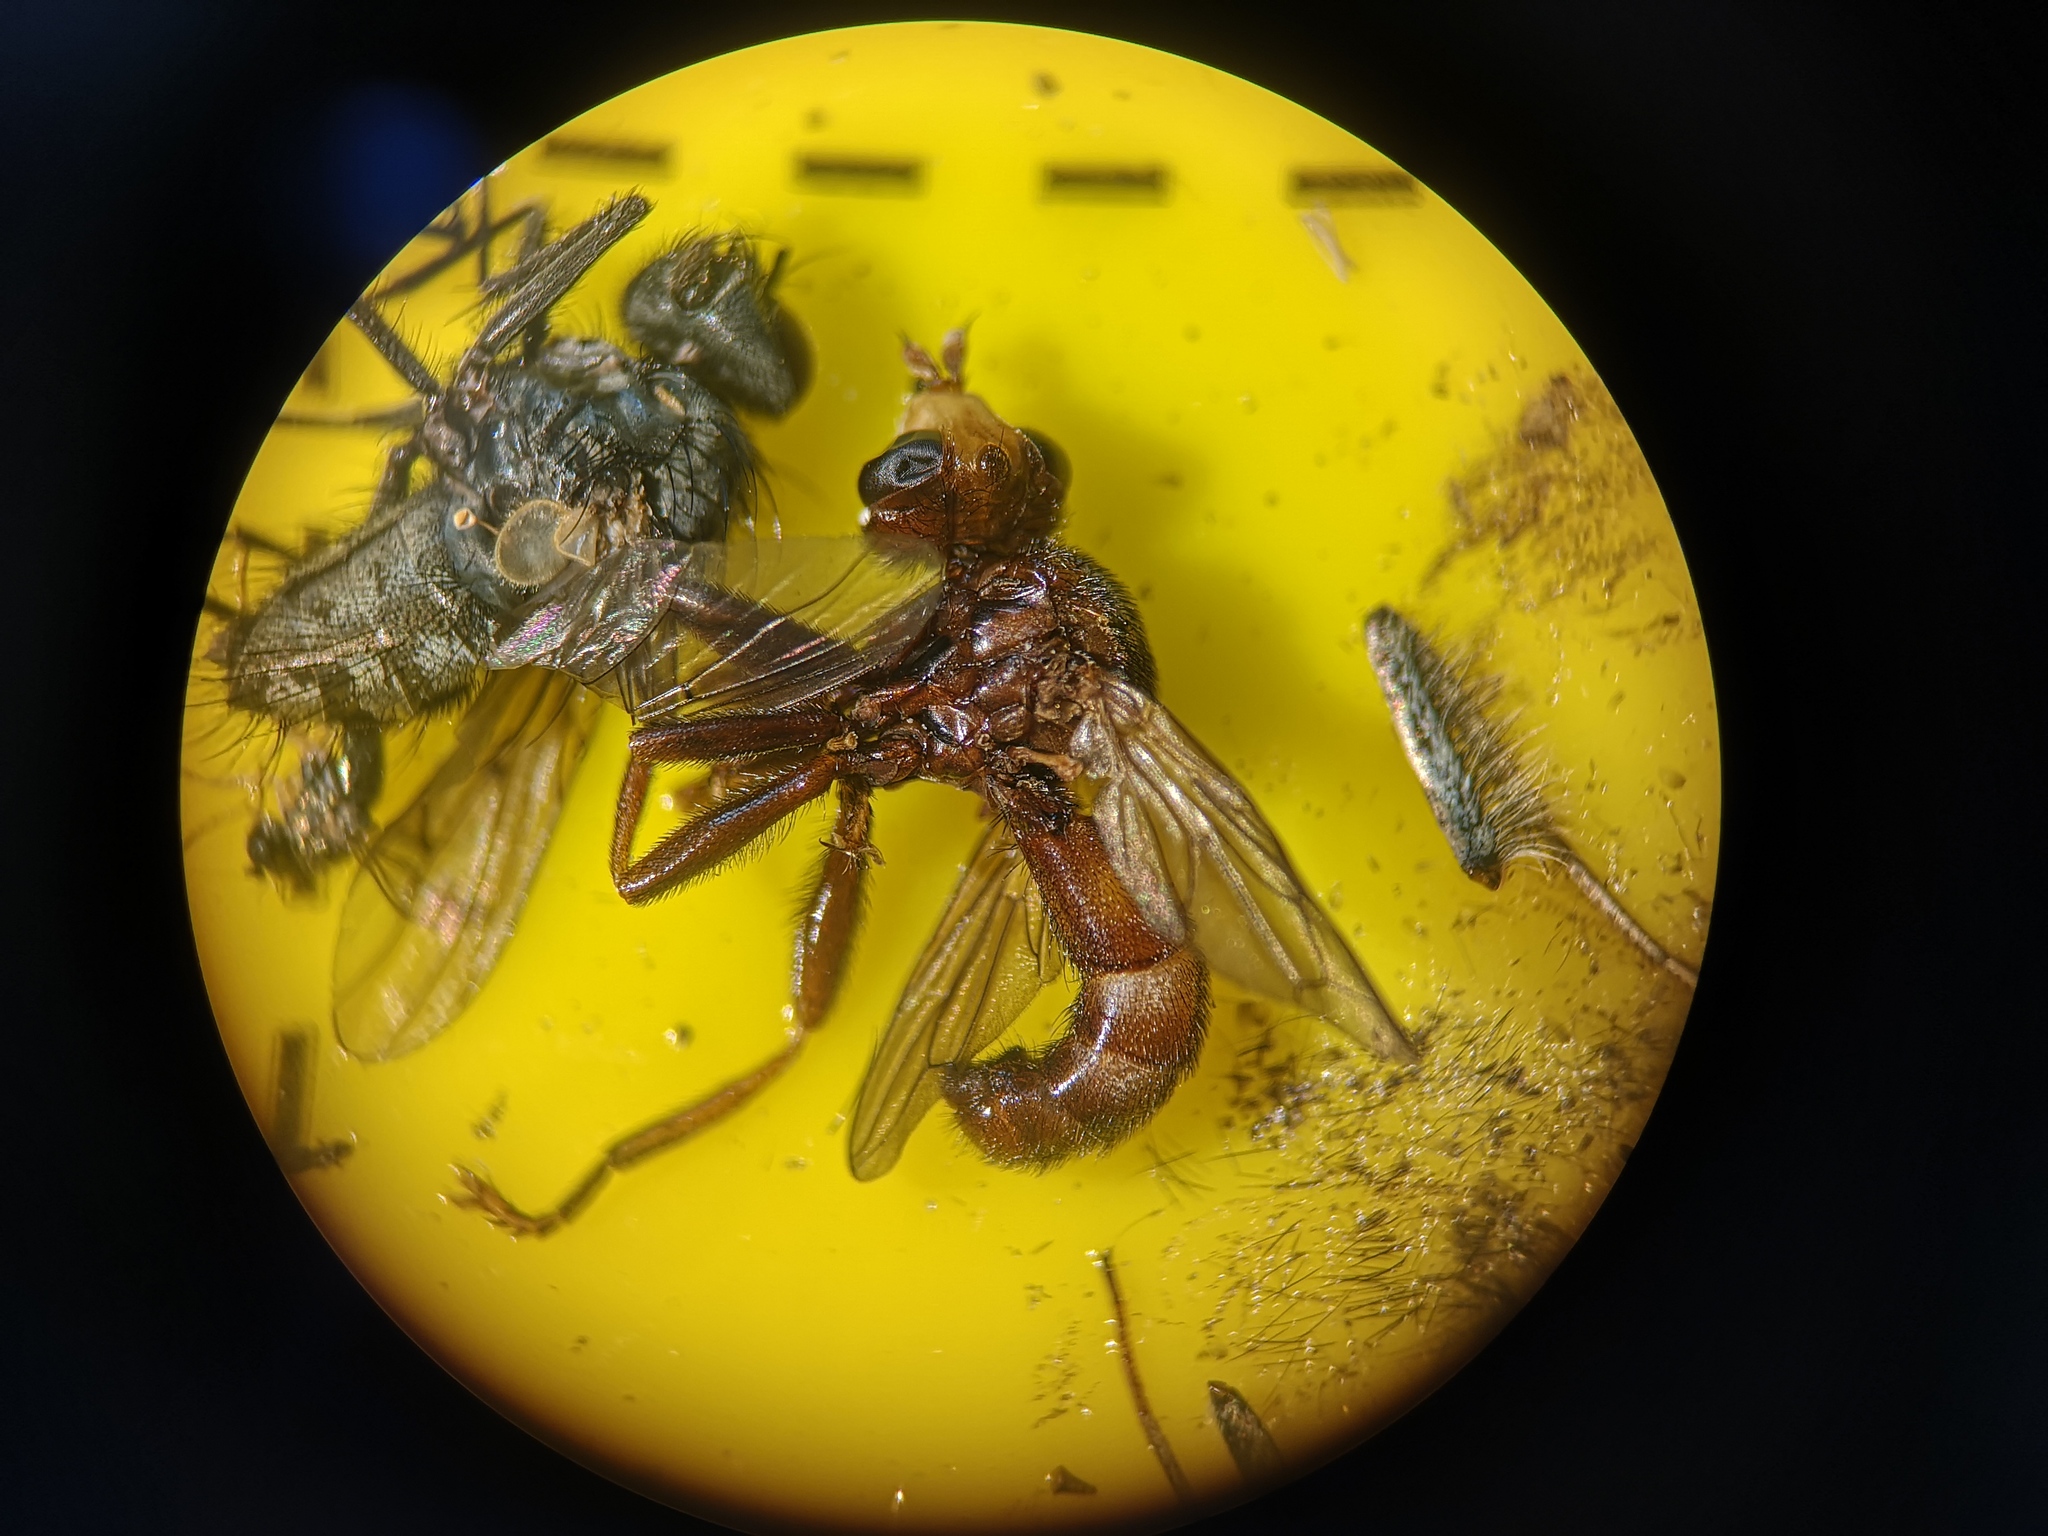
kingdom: Animalia
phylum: Arthropoda
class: Insecta
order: Diptera
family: Conopidae
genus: Sicus
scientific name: Sicus ferrugineus
